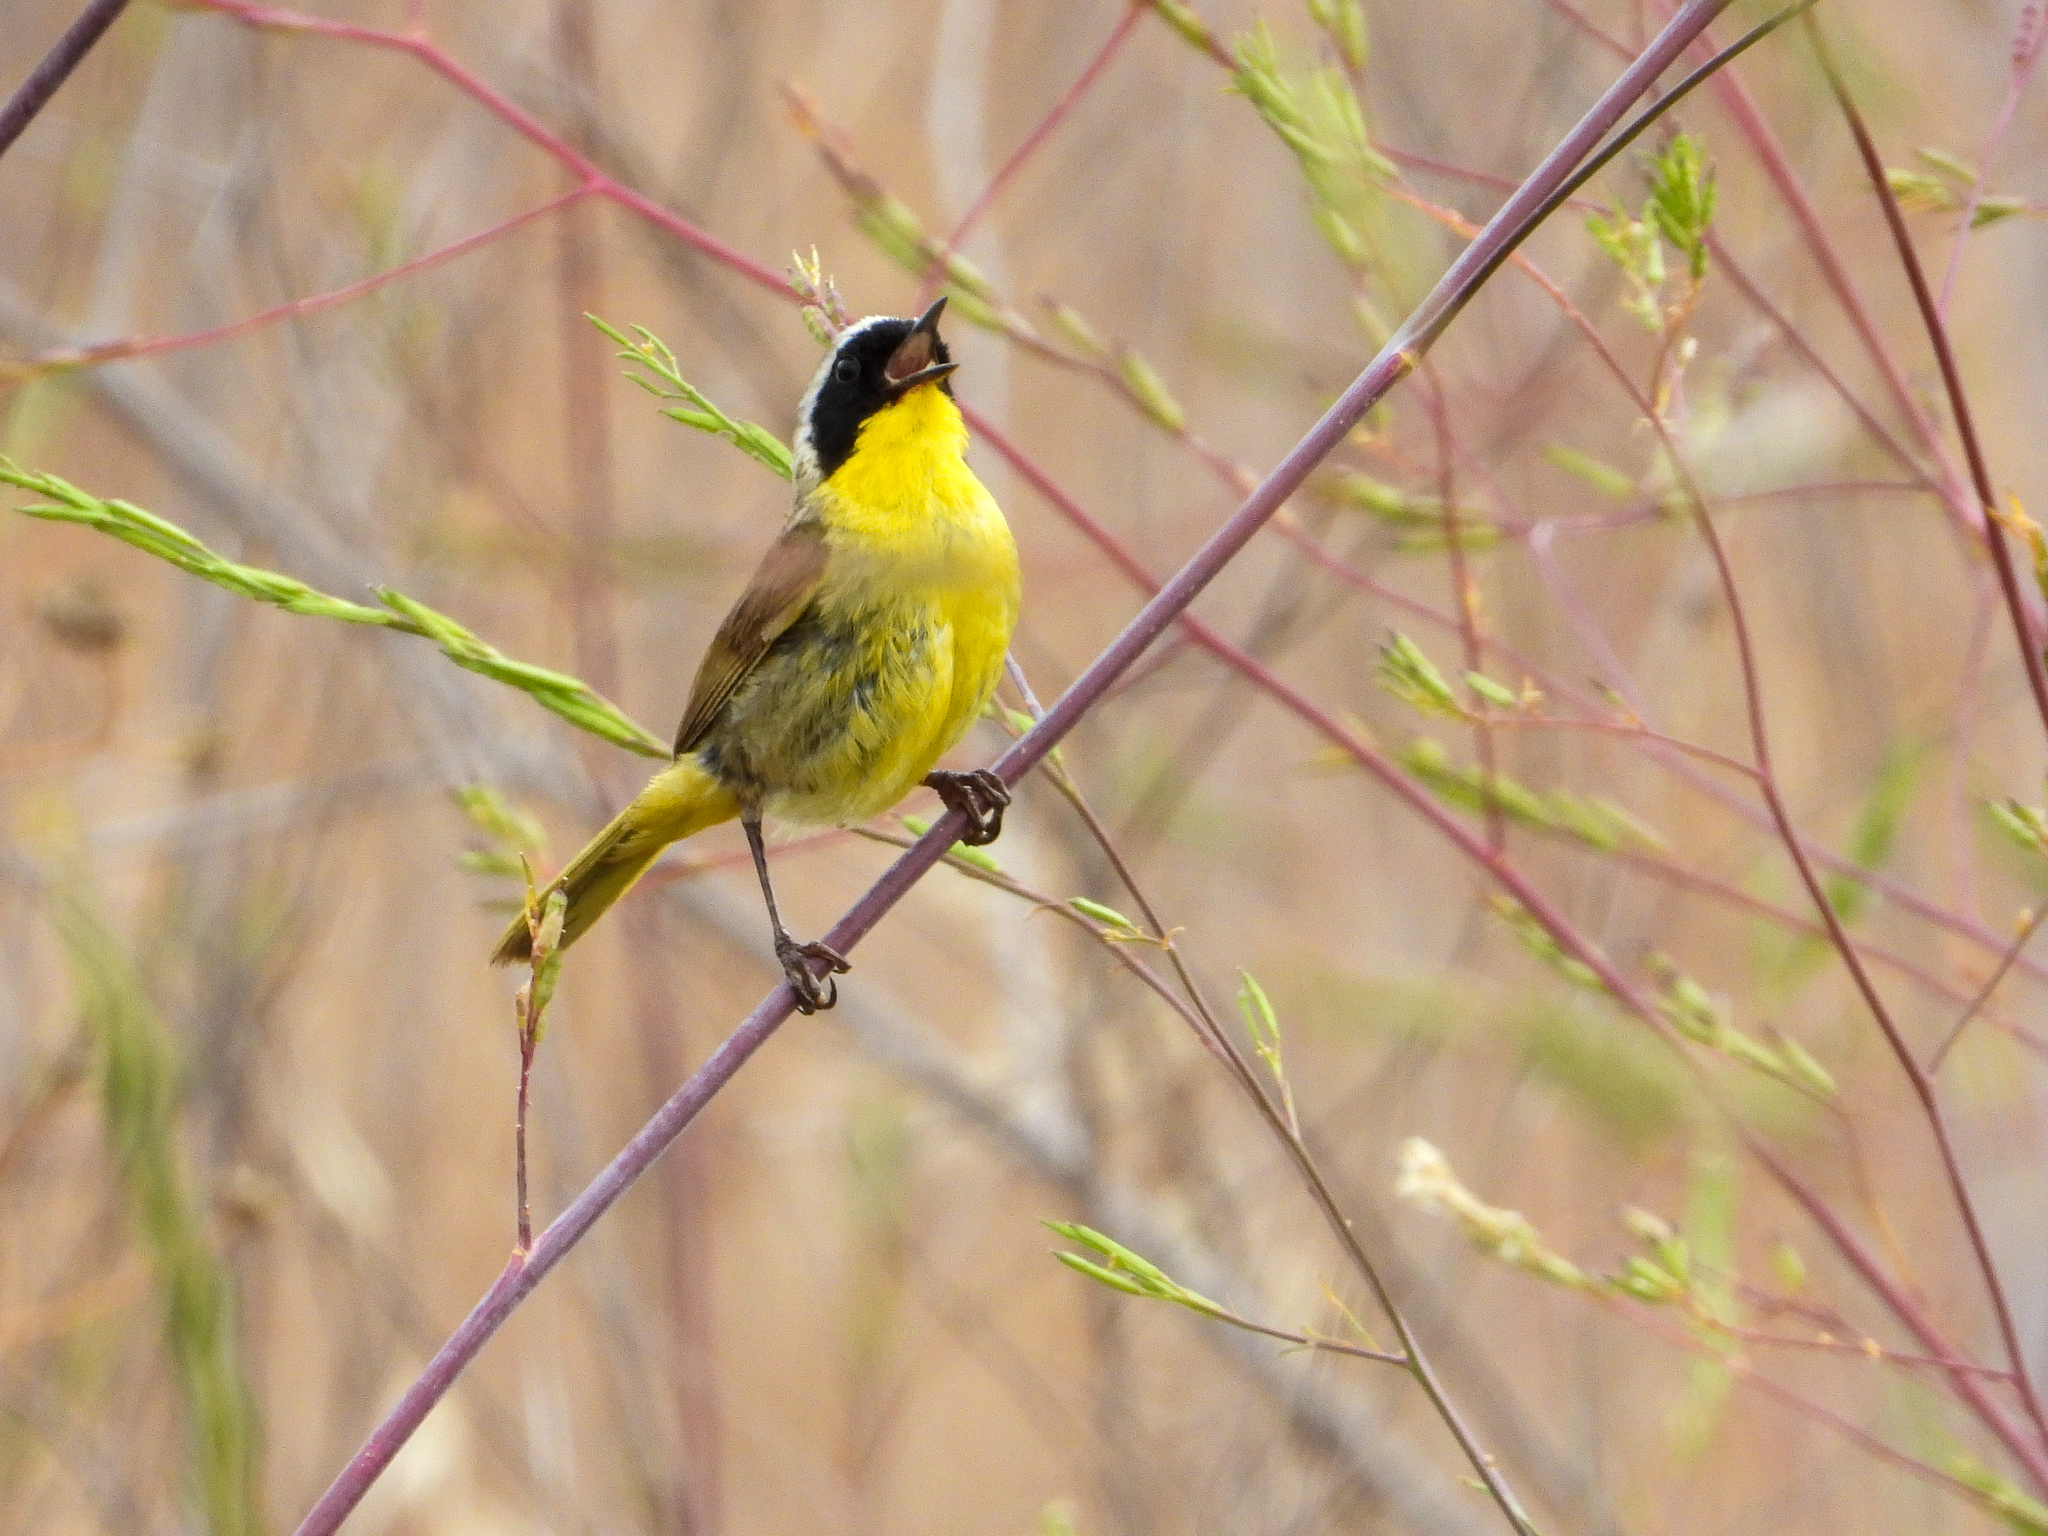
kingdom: Animalia
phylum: Chordata
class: Aves
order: Passeriformes
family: Parulidae
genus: Geothlypis
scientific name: Geothlypis trichas
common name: Common yellowthroat
